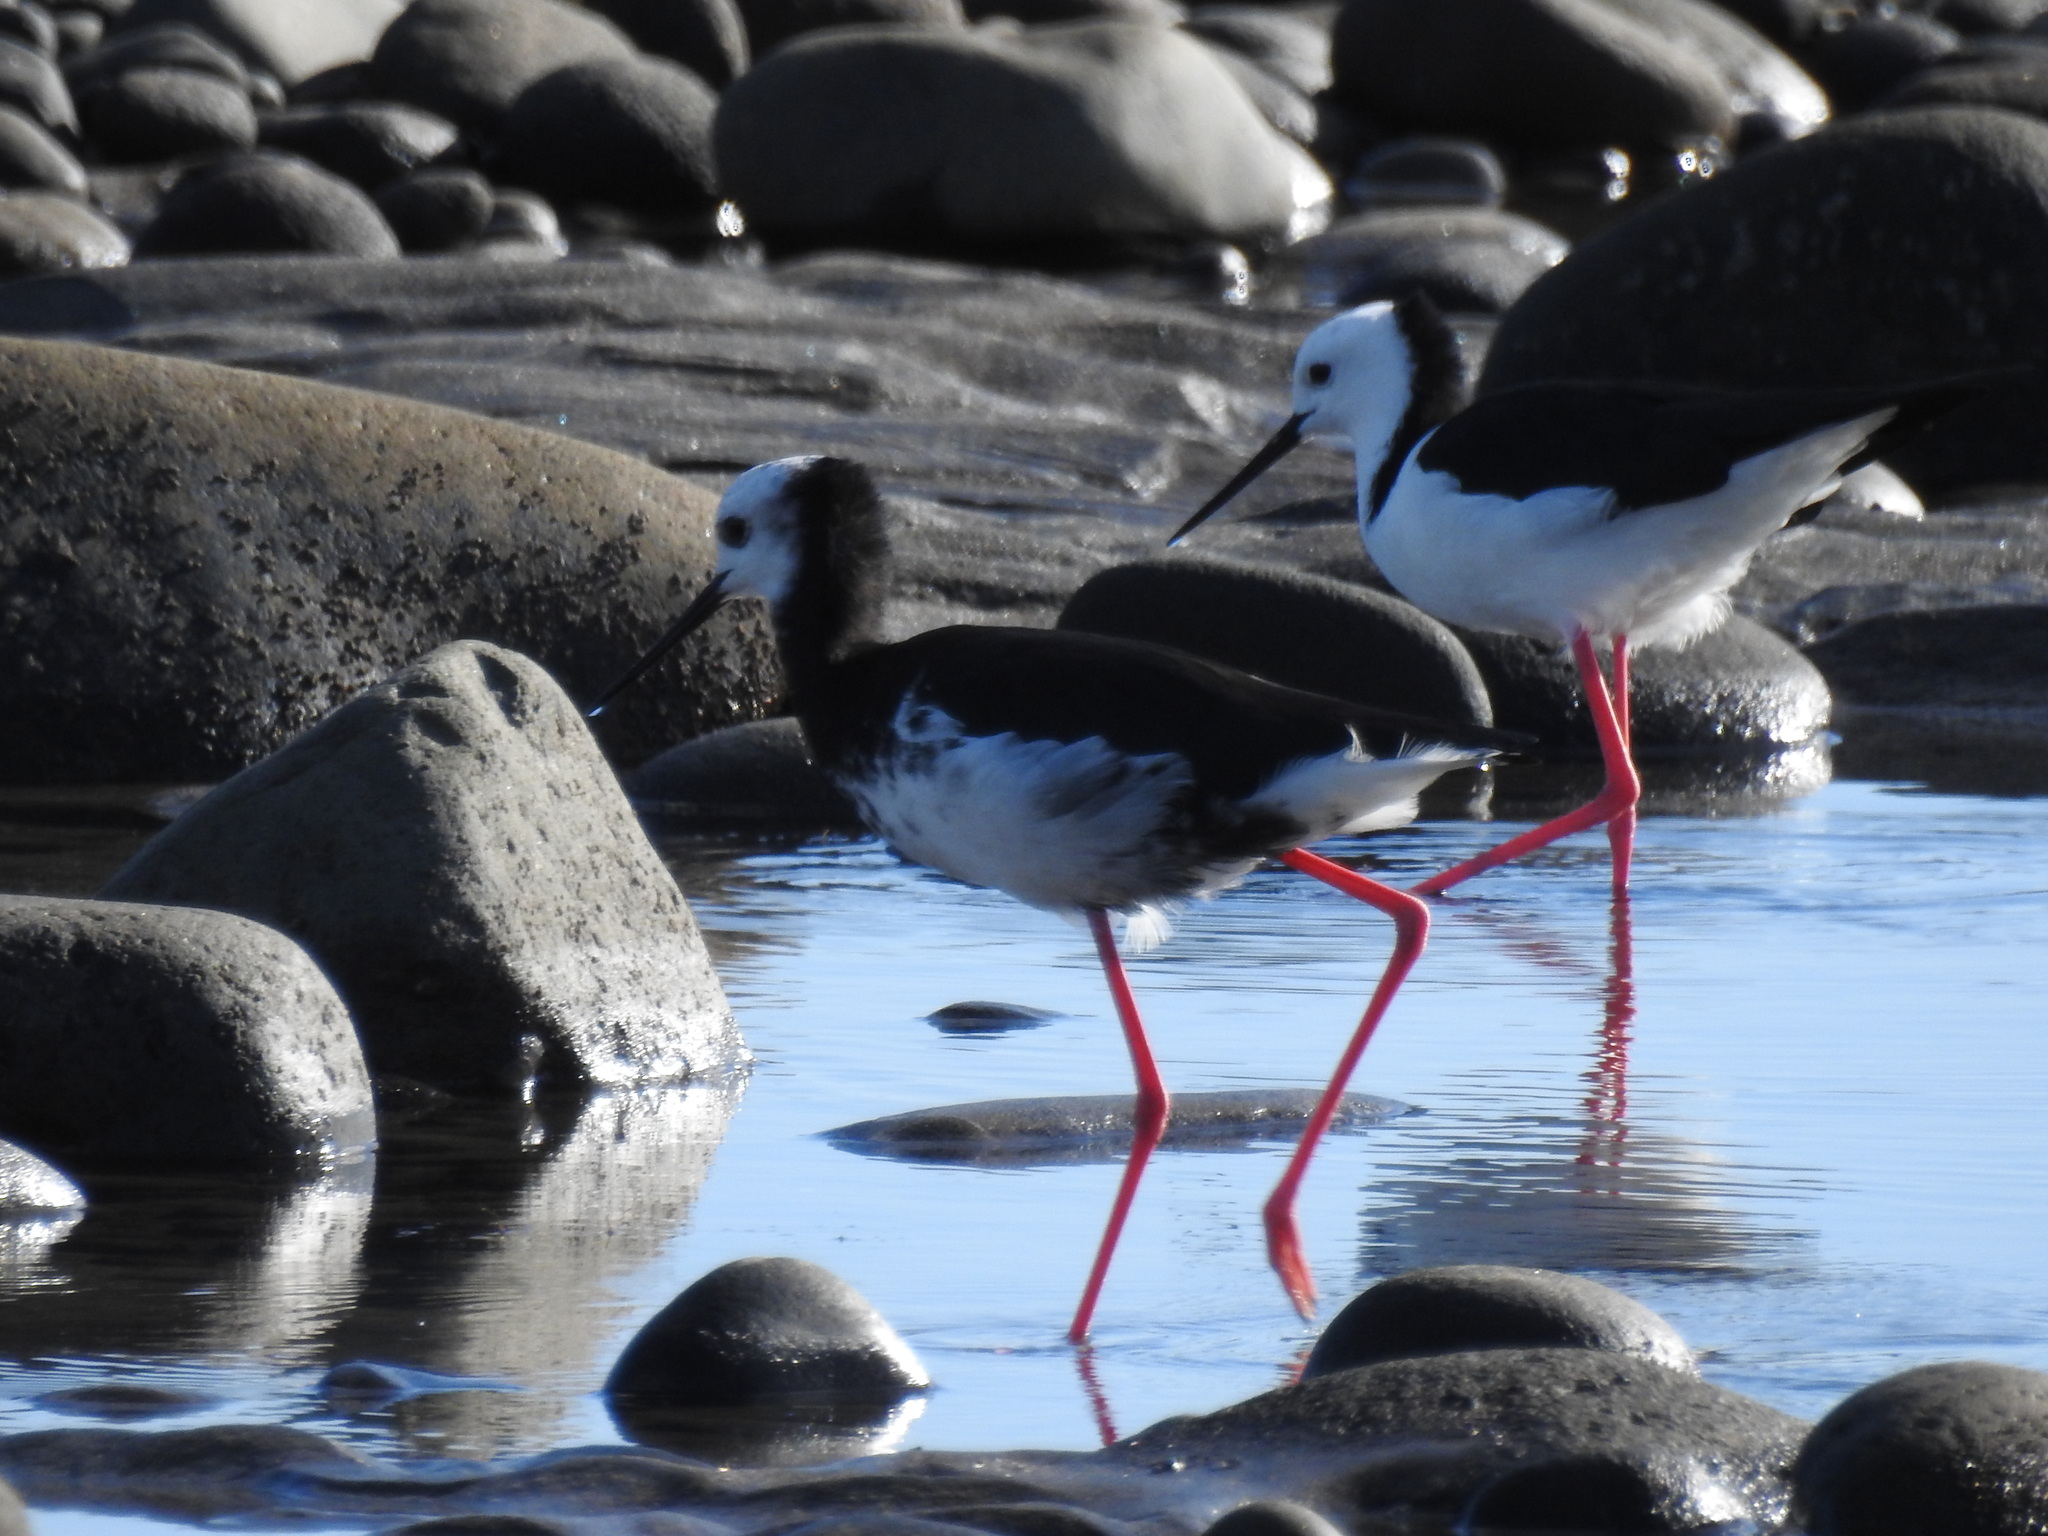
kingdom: Animalia
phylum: Chordata
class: Aves
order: Charadriiformes
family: Recurvirostridae
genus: Himantopus
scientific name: Himantopus
